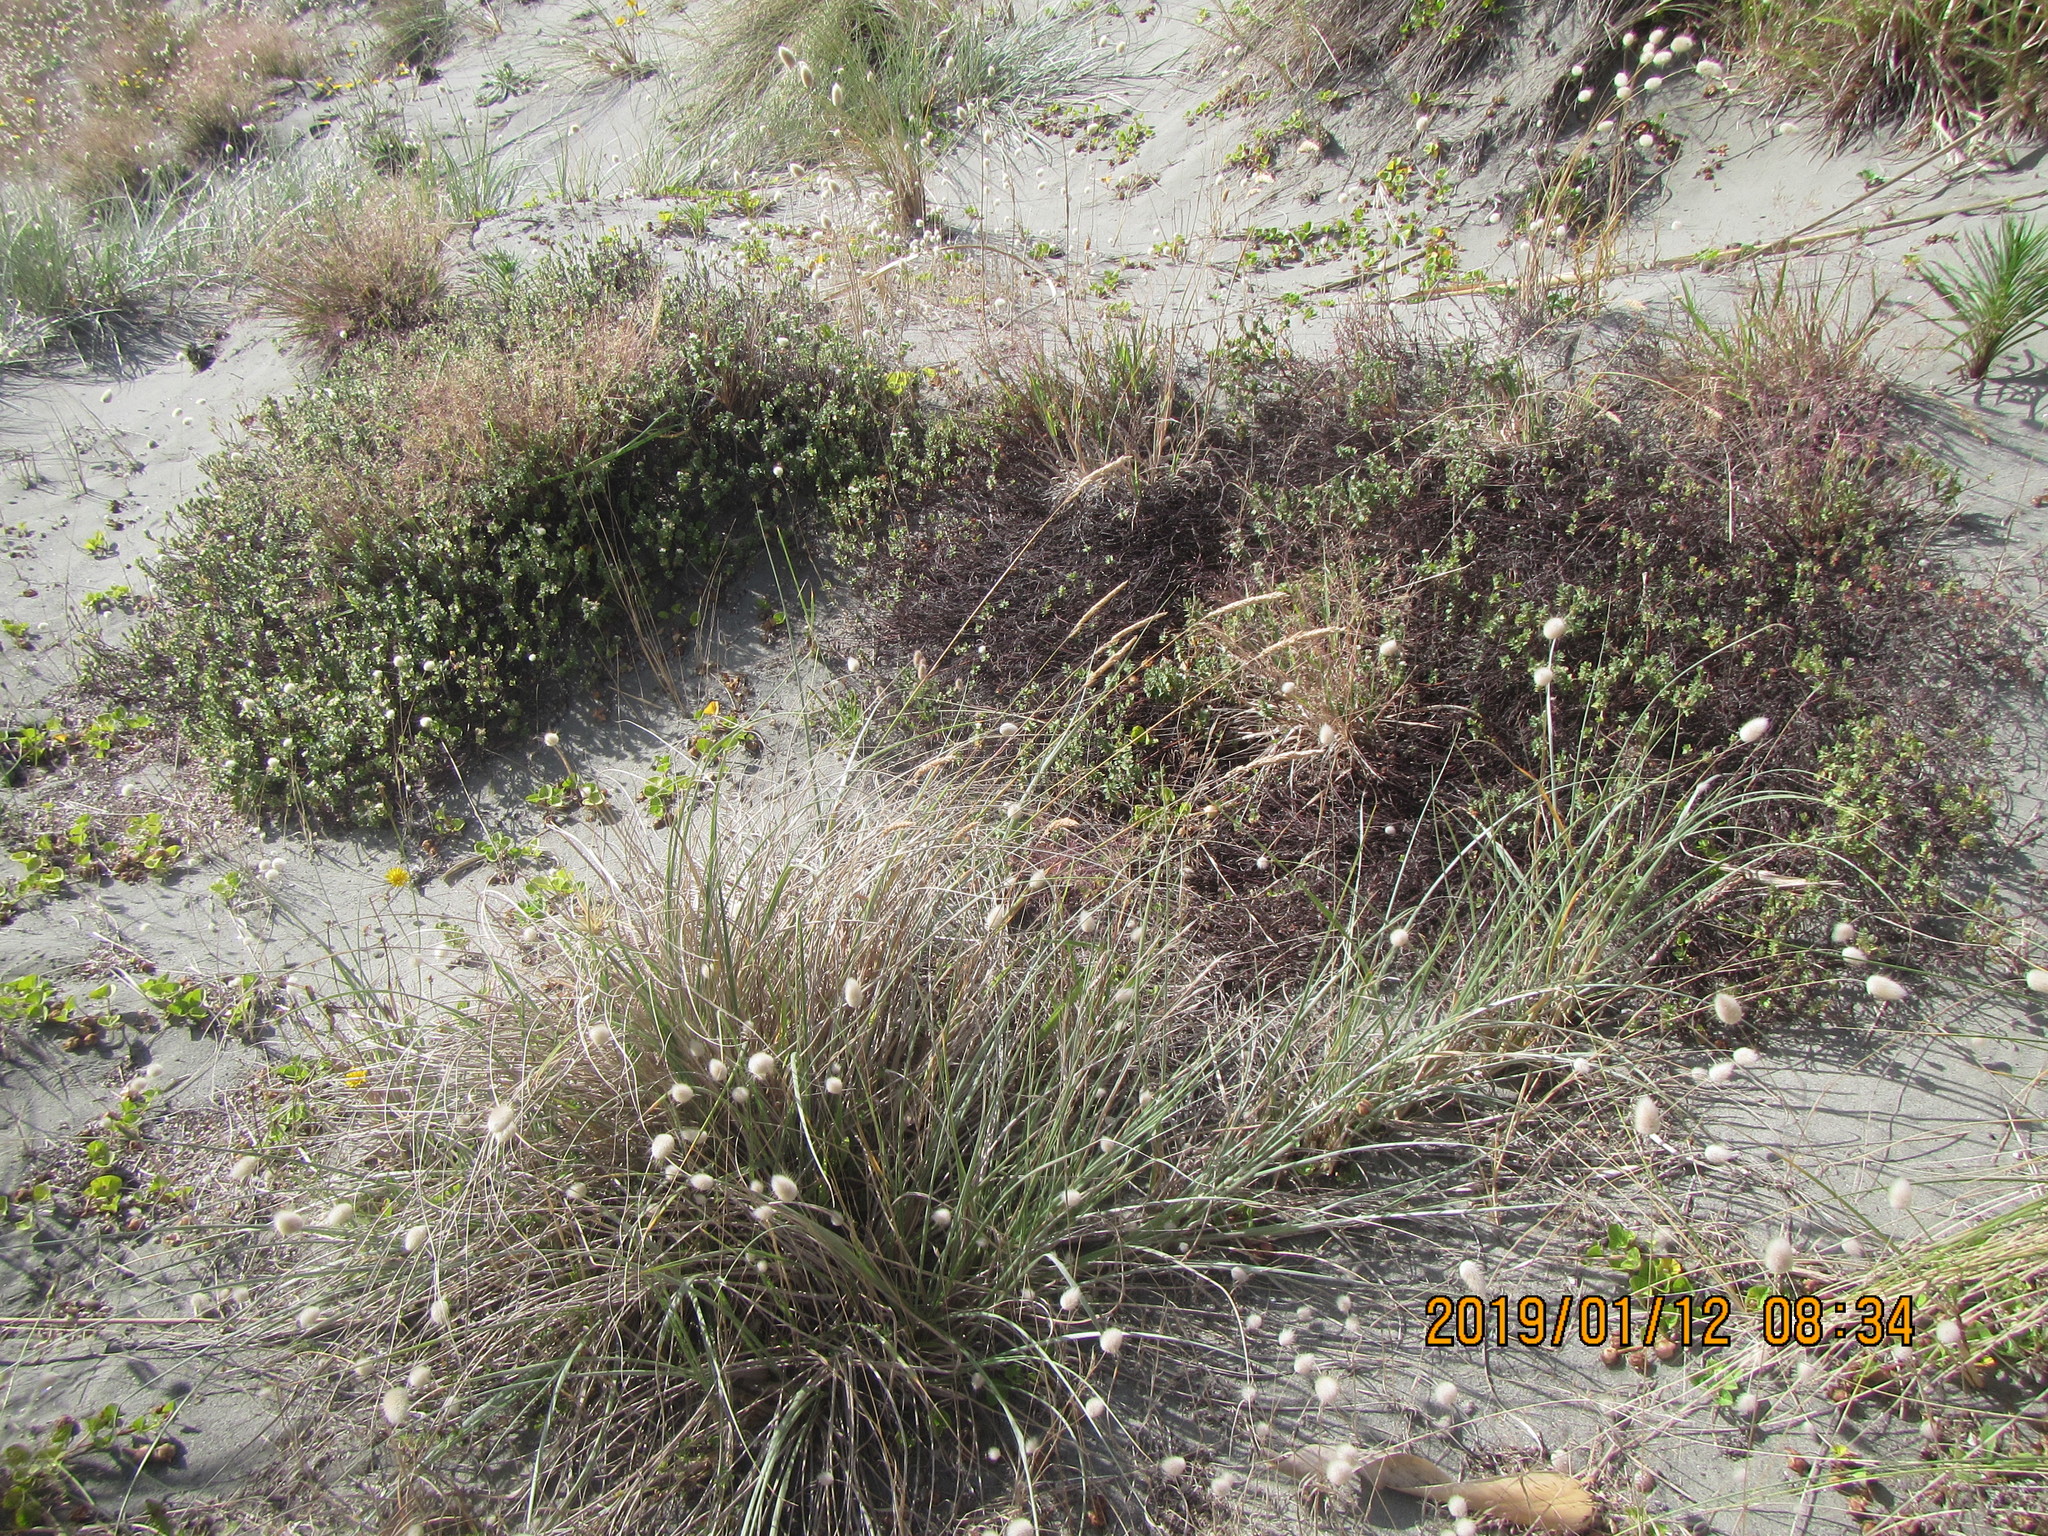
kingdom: Plantae
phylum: Tracheophyta
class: Magnoliopsida
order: Malvales
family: Thymelaeaceae
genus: Pimelea
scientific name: Pimelea villosa
